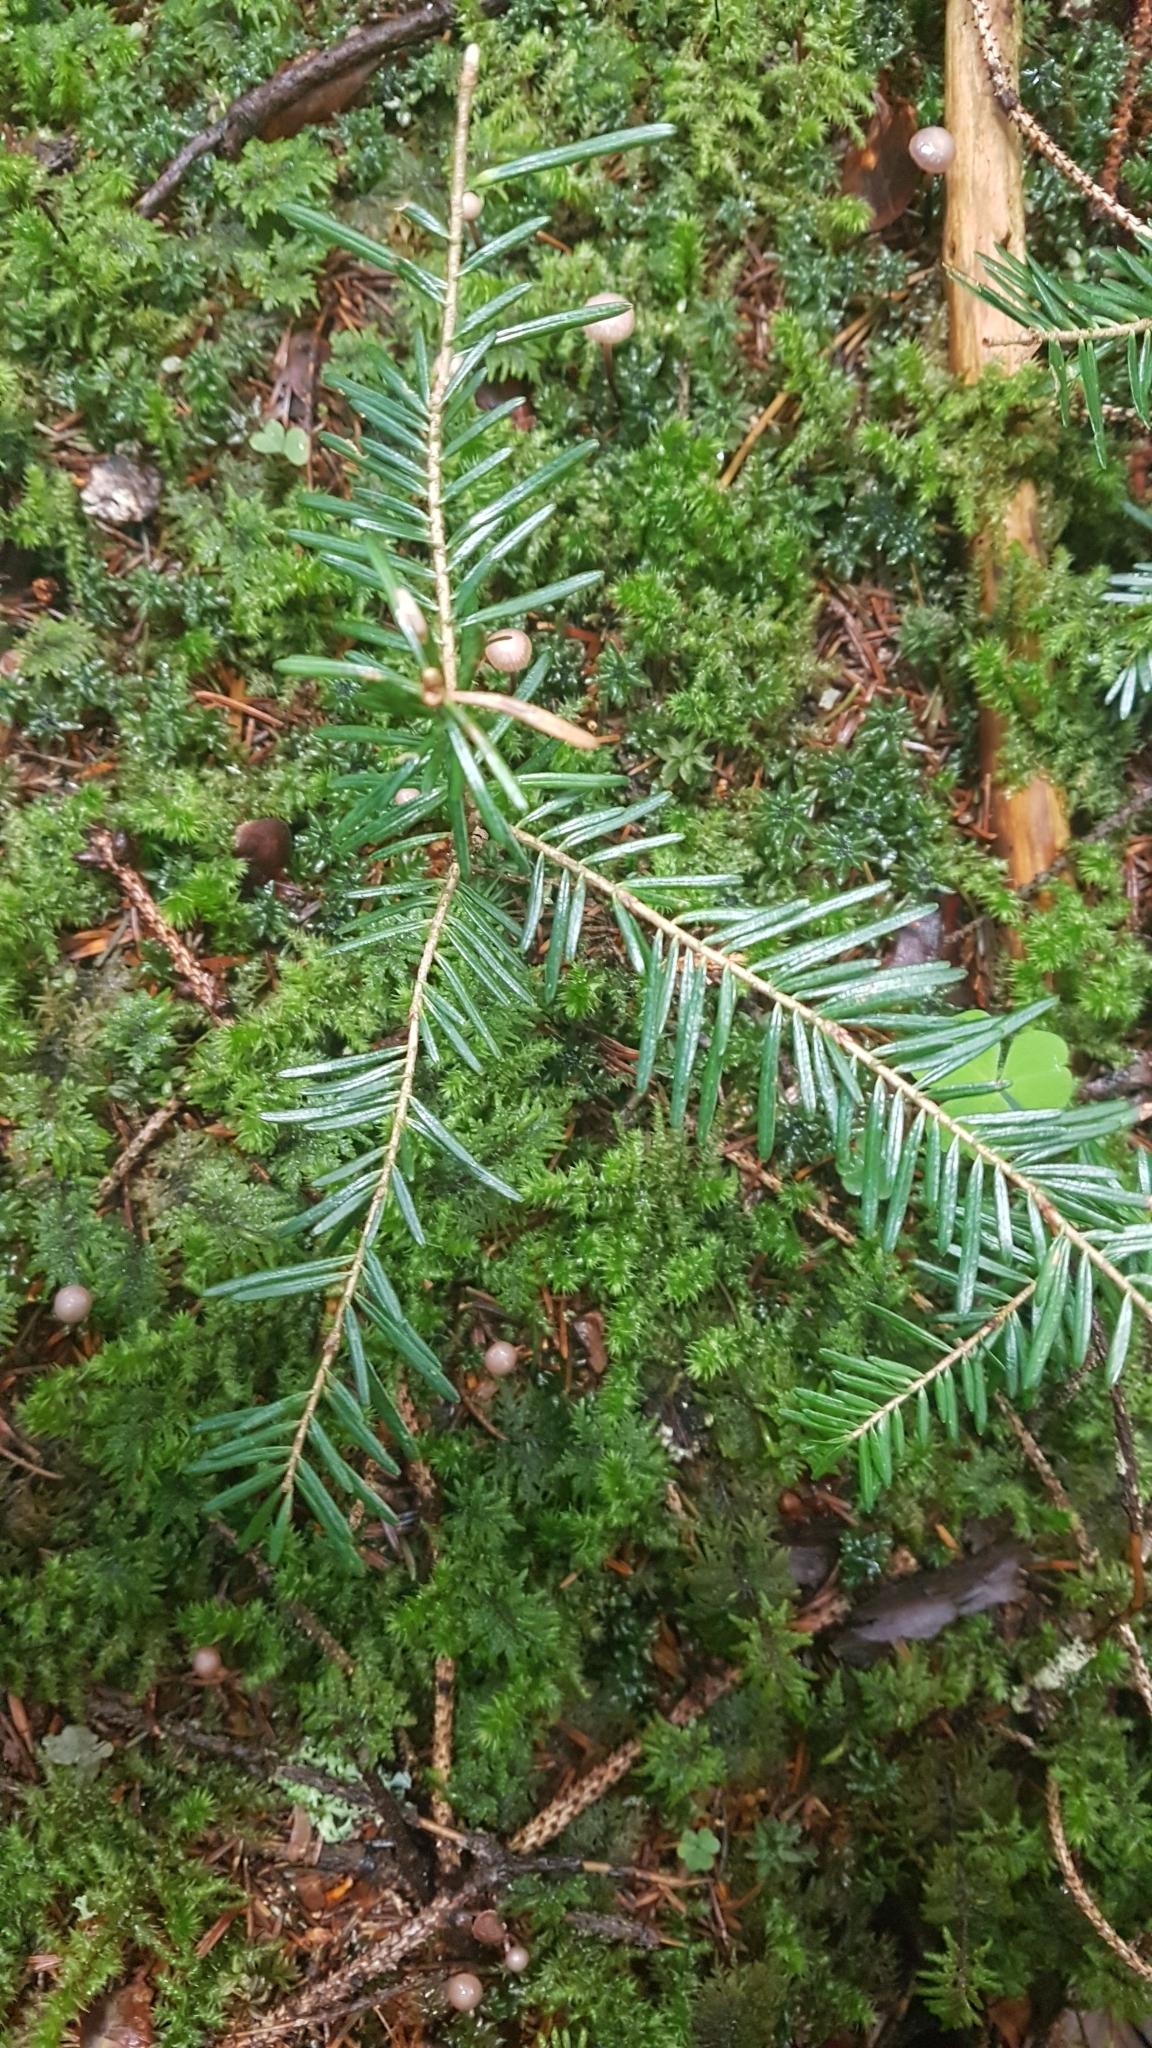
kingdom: Plantae
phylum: Tracheophyta
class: Pinopsida
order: Pinales
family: Pinaceae
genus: Abies
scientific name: Abies alba
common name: Silver fir
